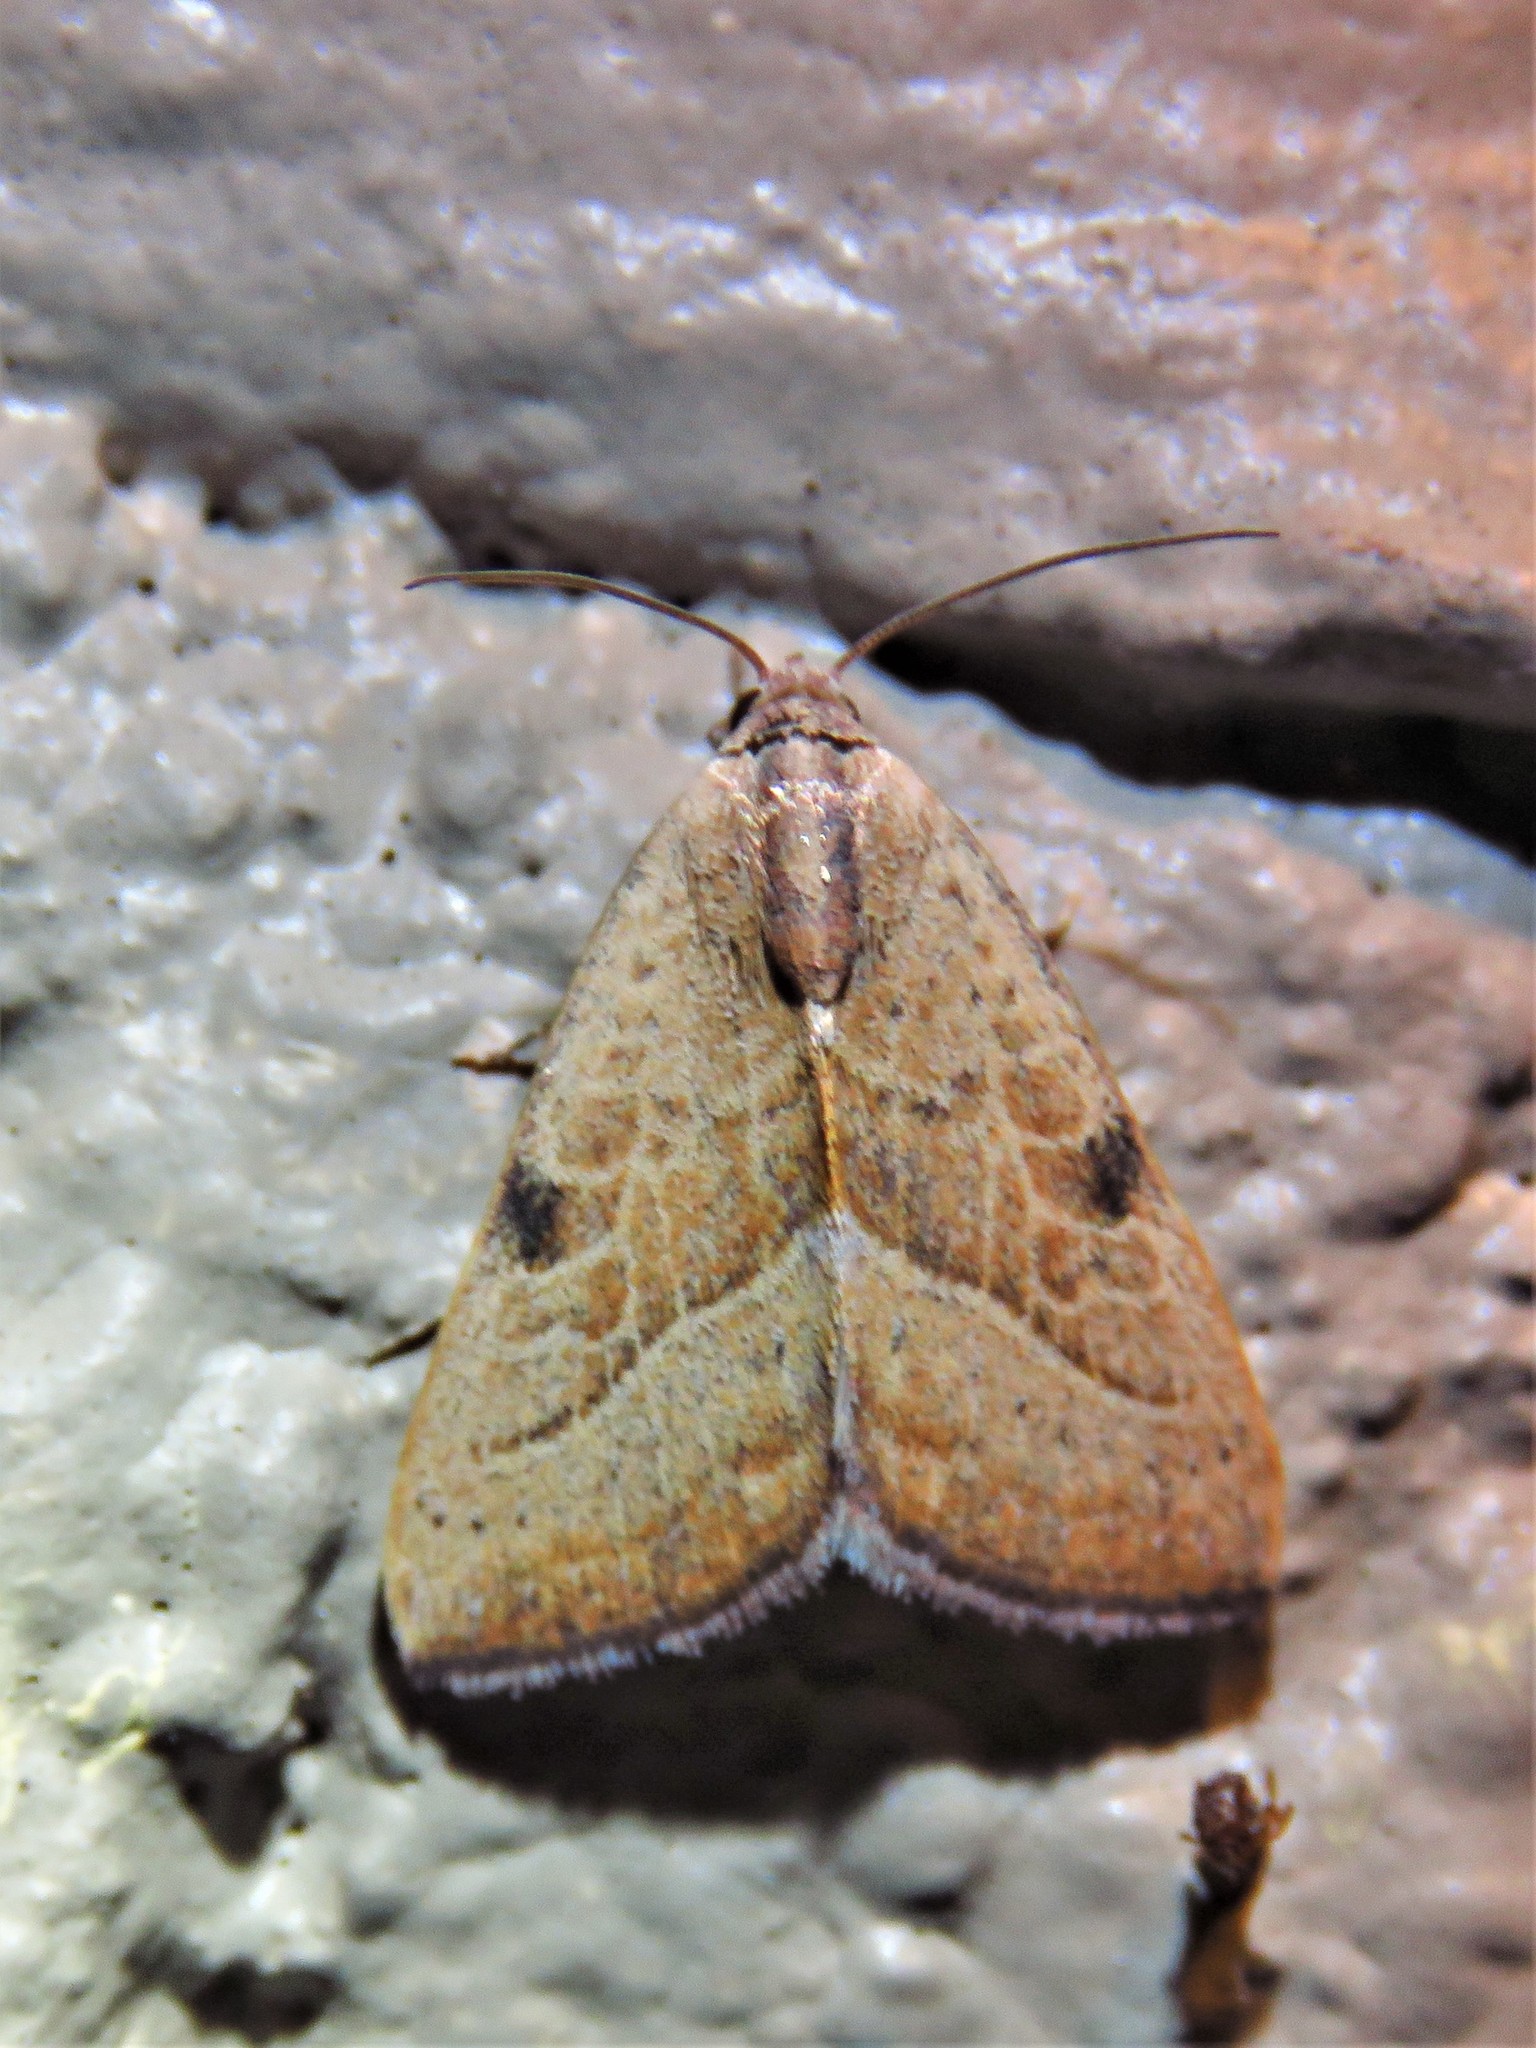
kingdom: Animalia
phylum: Arthropoda
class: Insecta
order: Lepidoptera
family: Noctuidae
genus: Galgula
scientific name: Galgula partita
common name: Wedgeling
